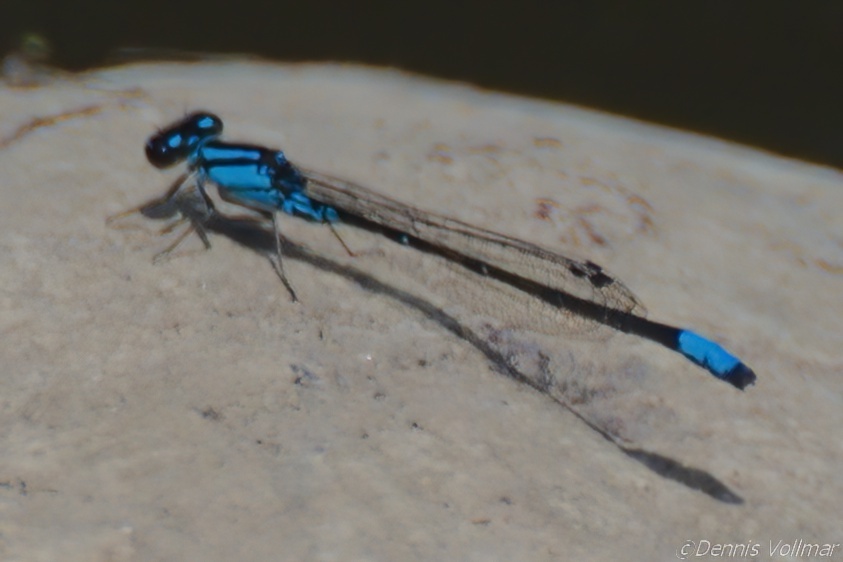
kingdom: Animalia
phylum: Arthropoda
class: Insecta
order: Odonata
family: Coenagrionidae
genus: Enallagma
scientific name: Enallagma geminatum
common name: Skimming bluet
